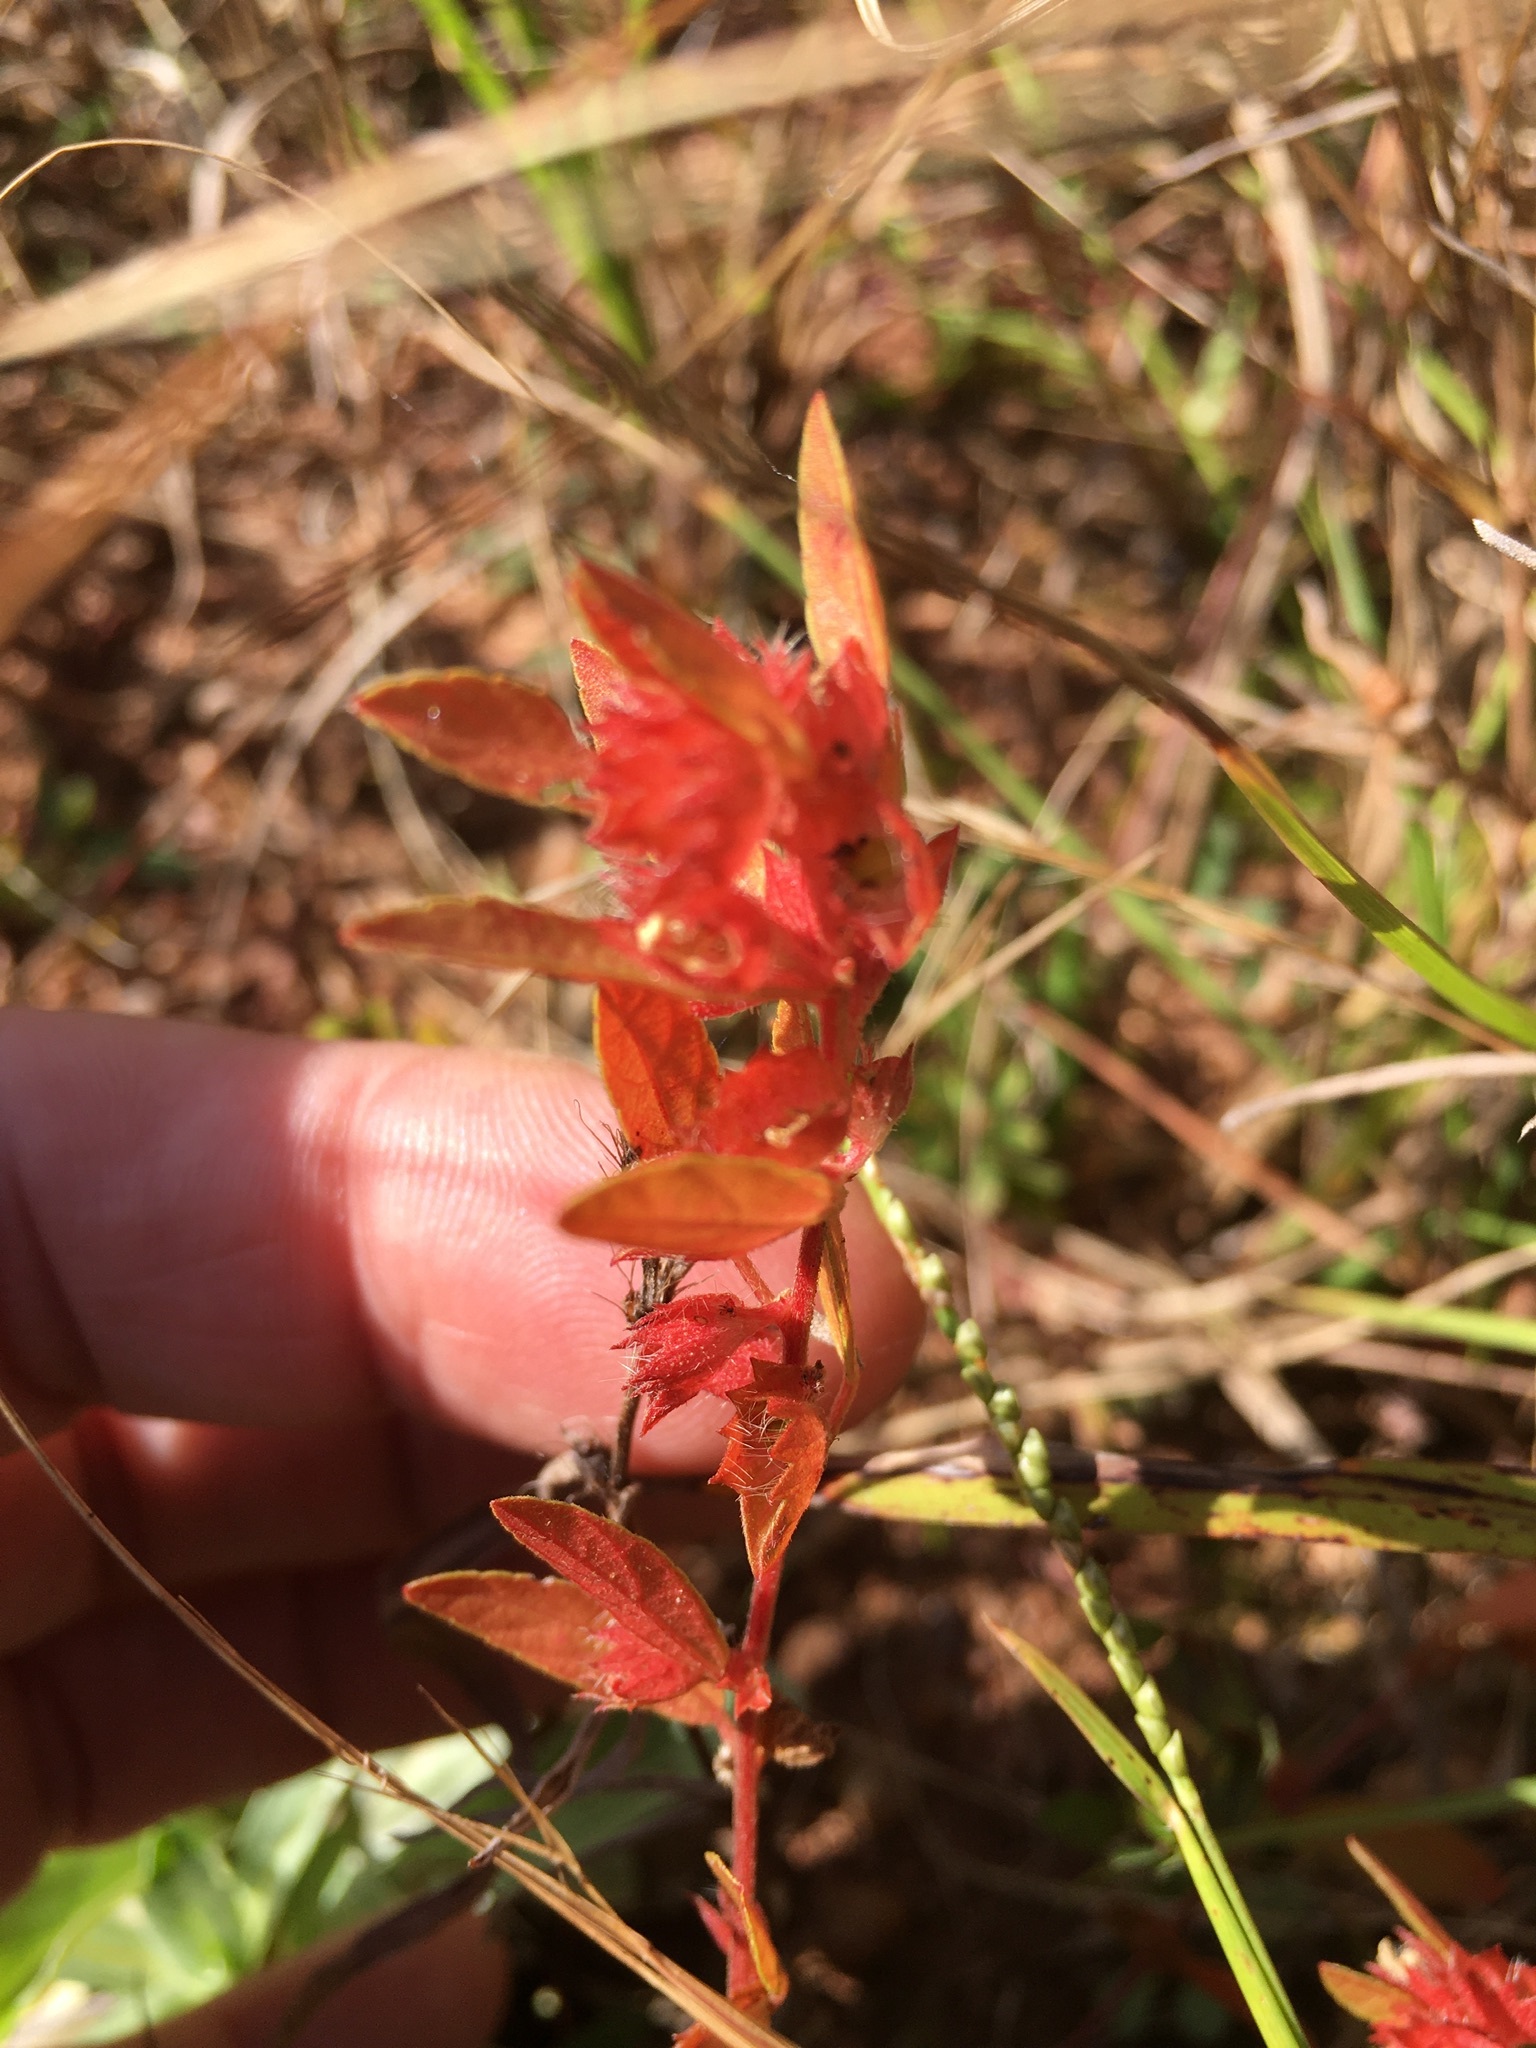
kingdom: Plantae
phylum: Tracheophyta
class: Magnoliopsida
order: Malpighiales
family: Euphorbiaceae
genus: Acalypha
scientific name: Acalypha gracilens
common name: Slender three-seeded mercury
